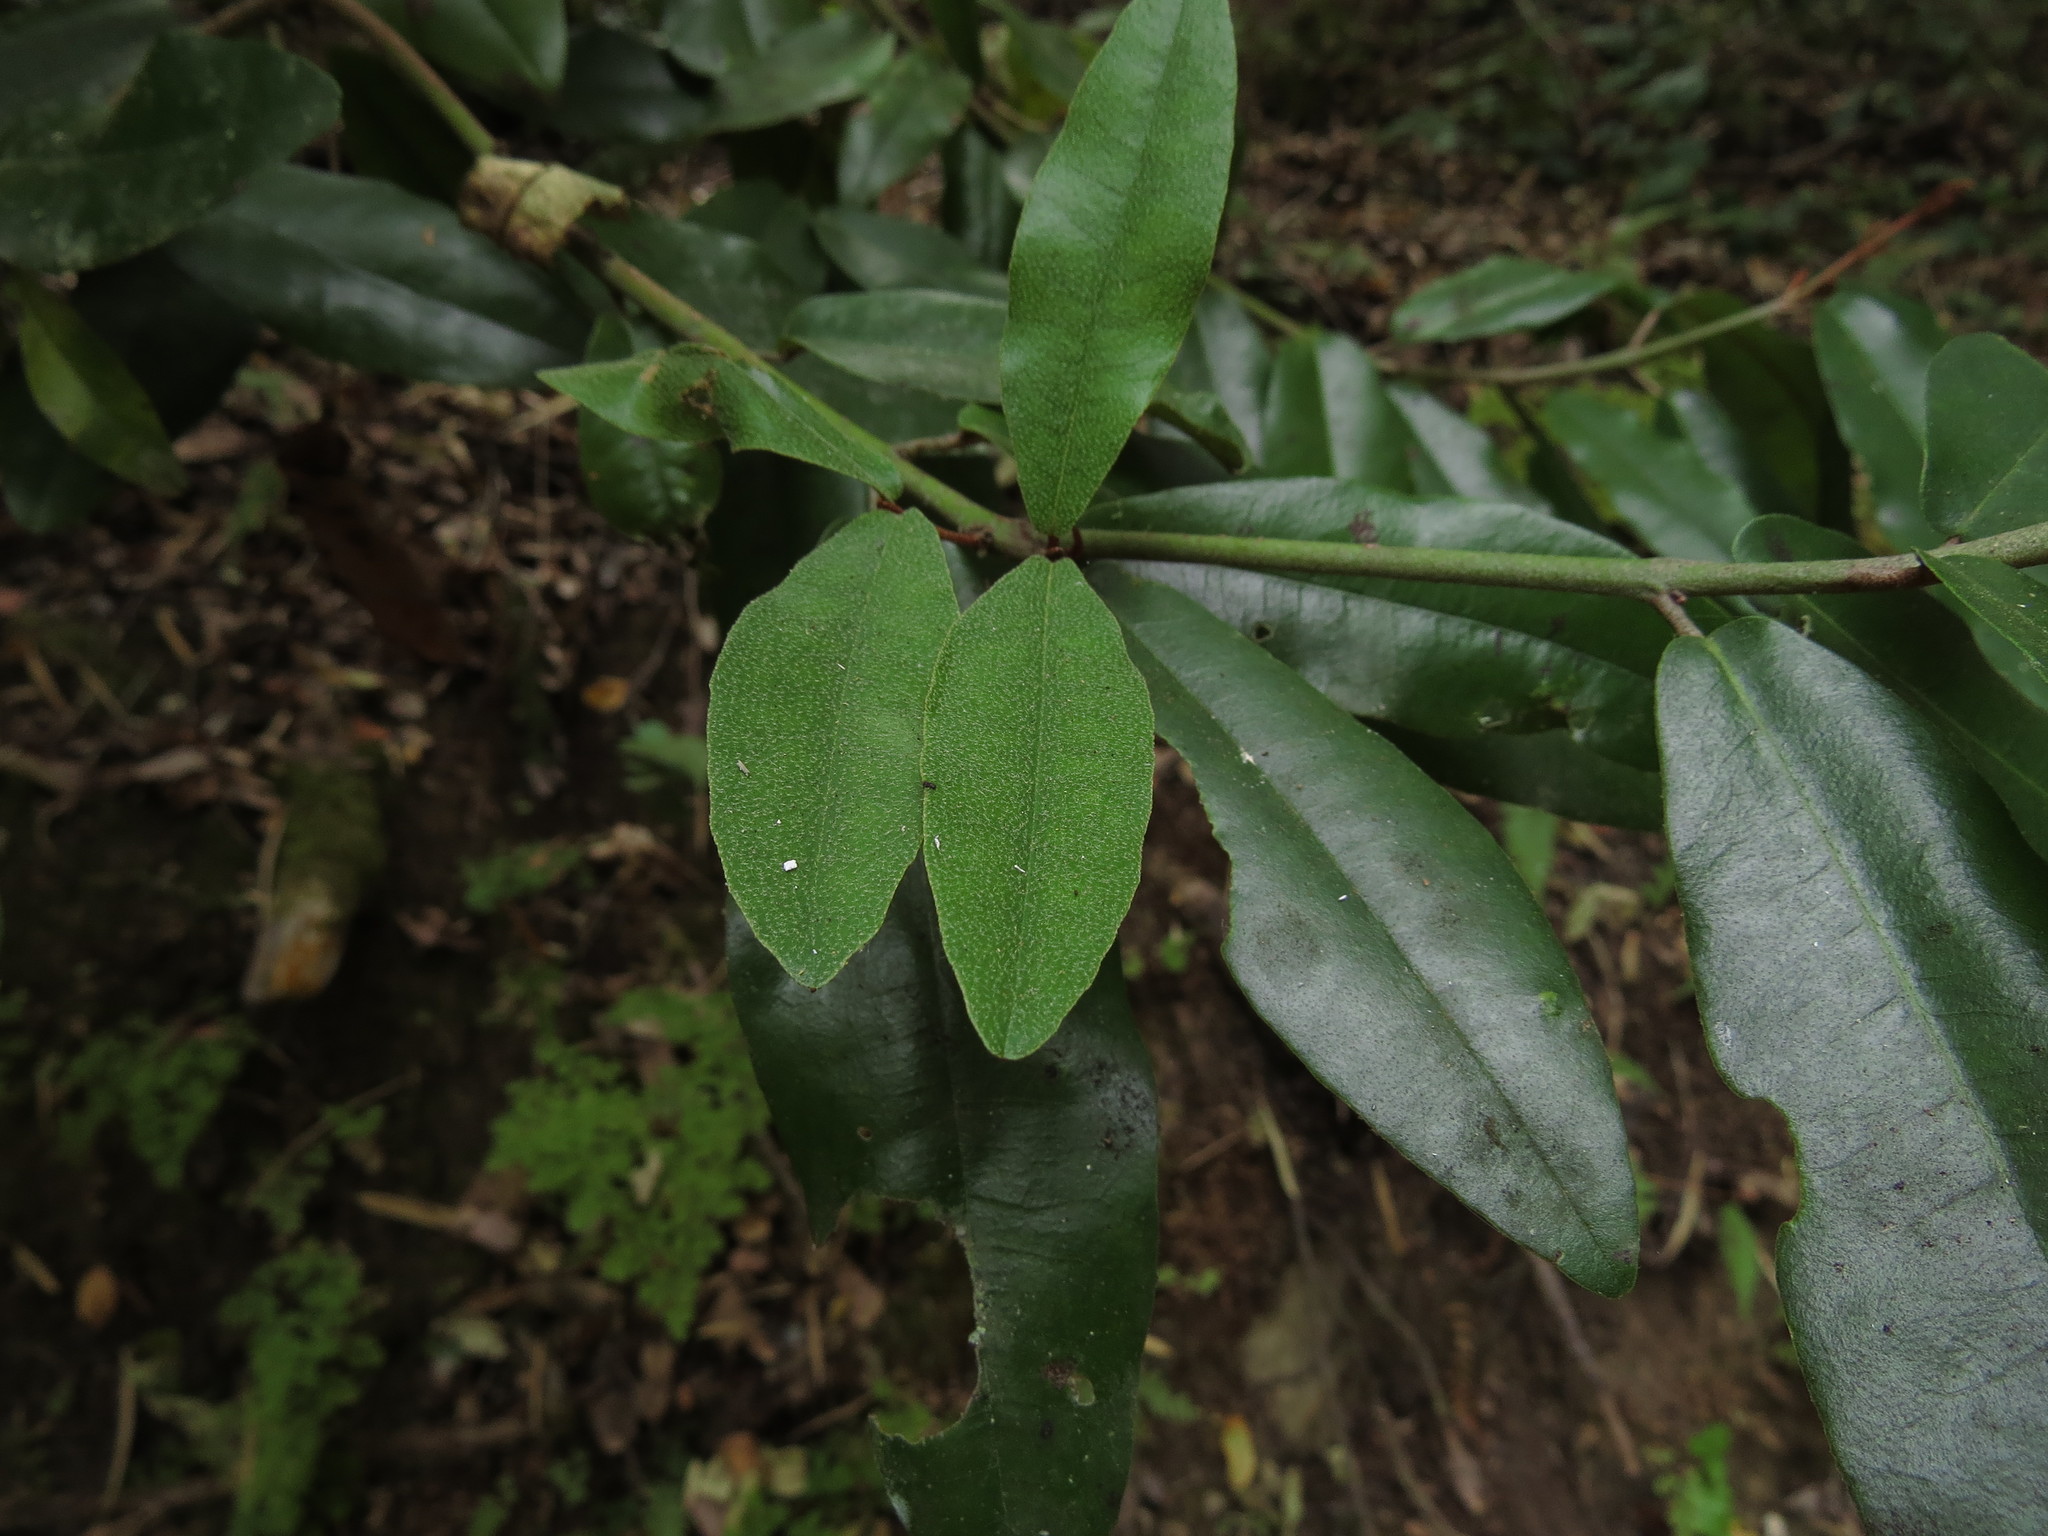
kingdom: Plantae
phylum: Tracheophyta
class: Magnoliopsida
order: Berberidopsidales
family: Aextoxicaceae
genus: Aextoxicon
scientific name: Aextoxicon punctatum
